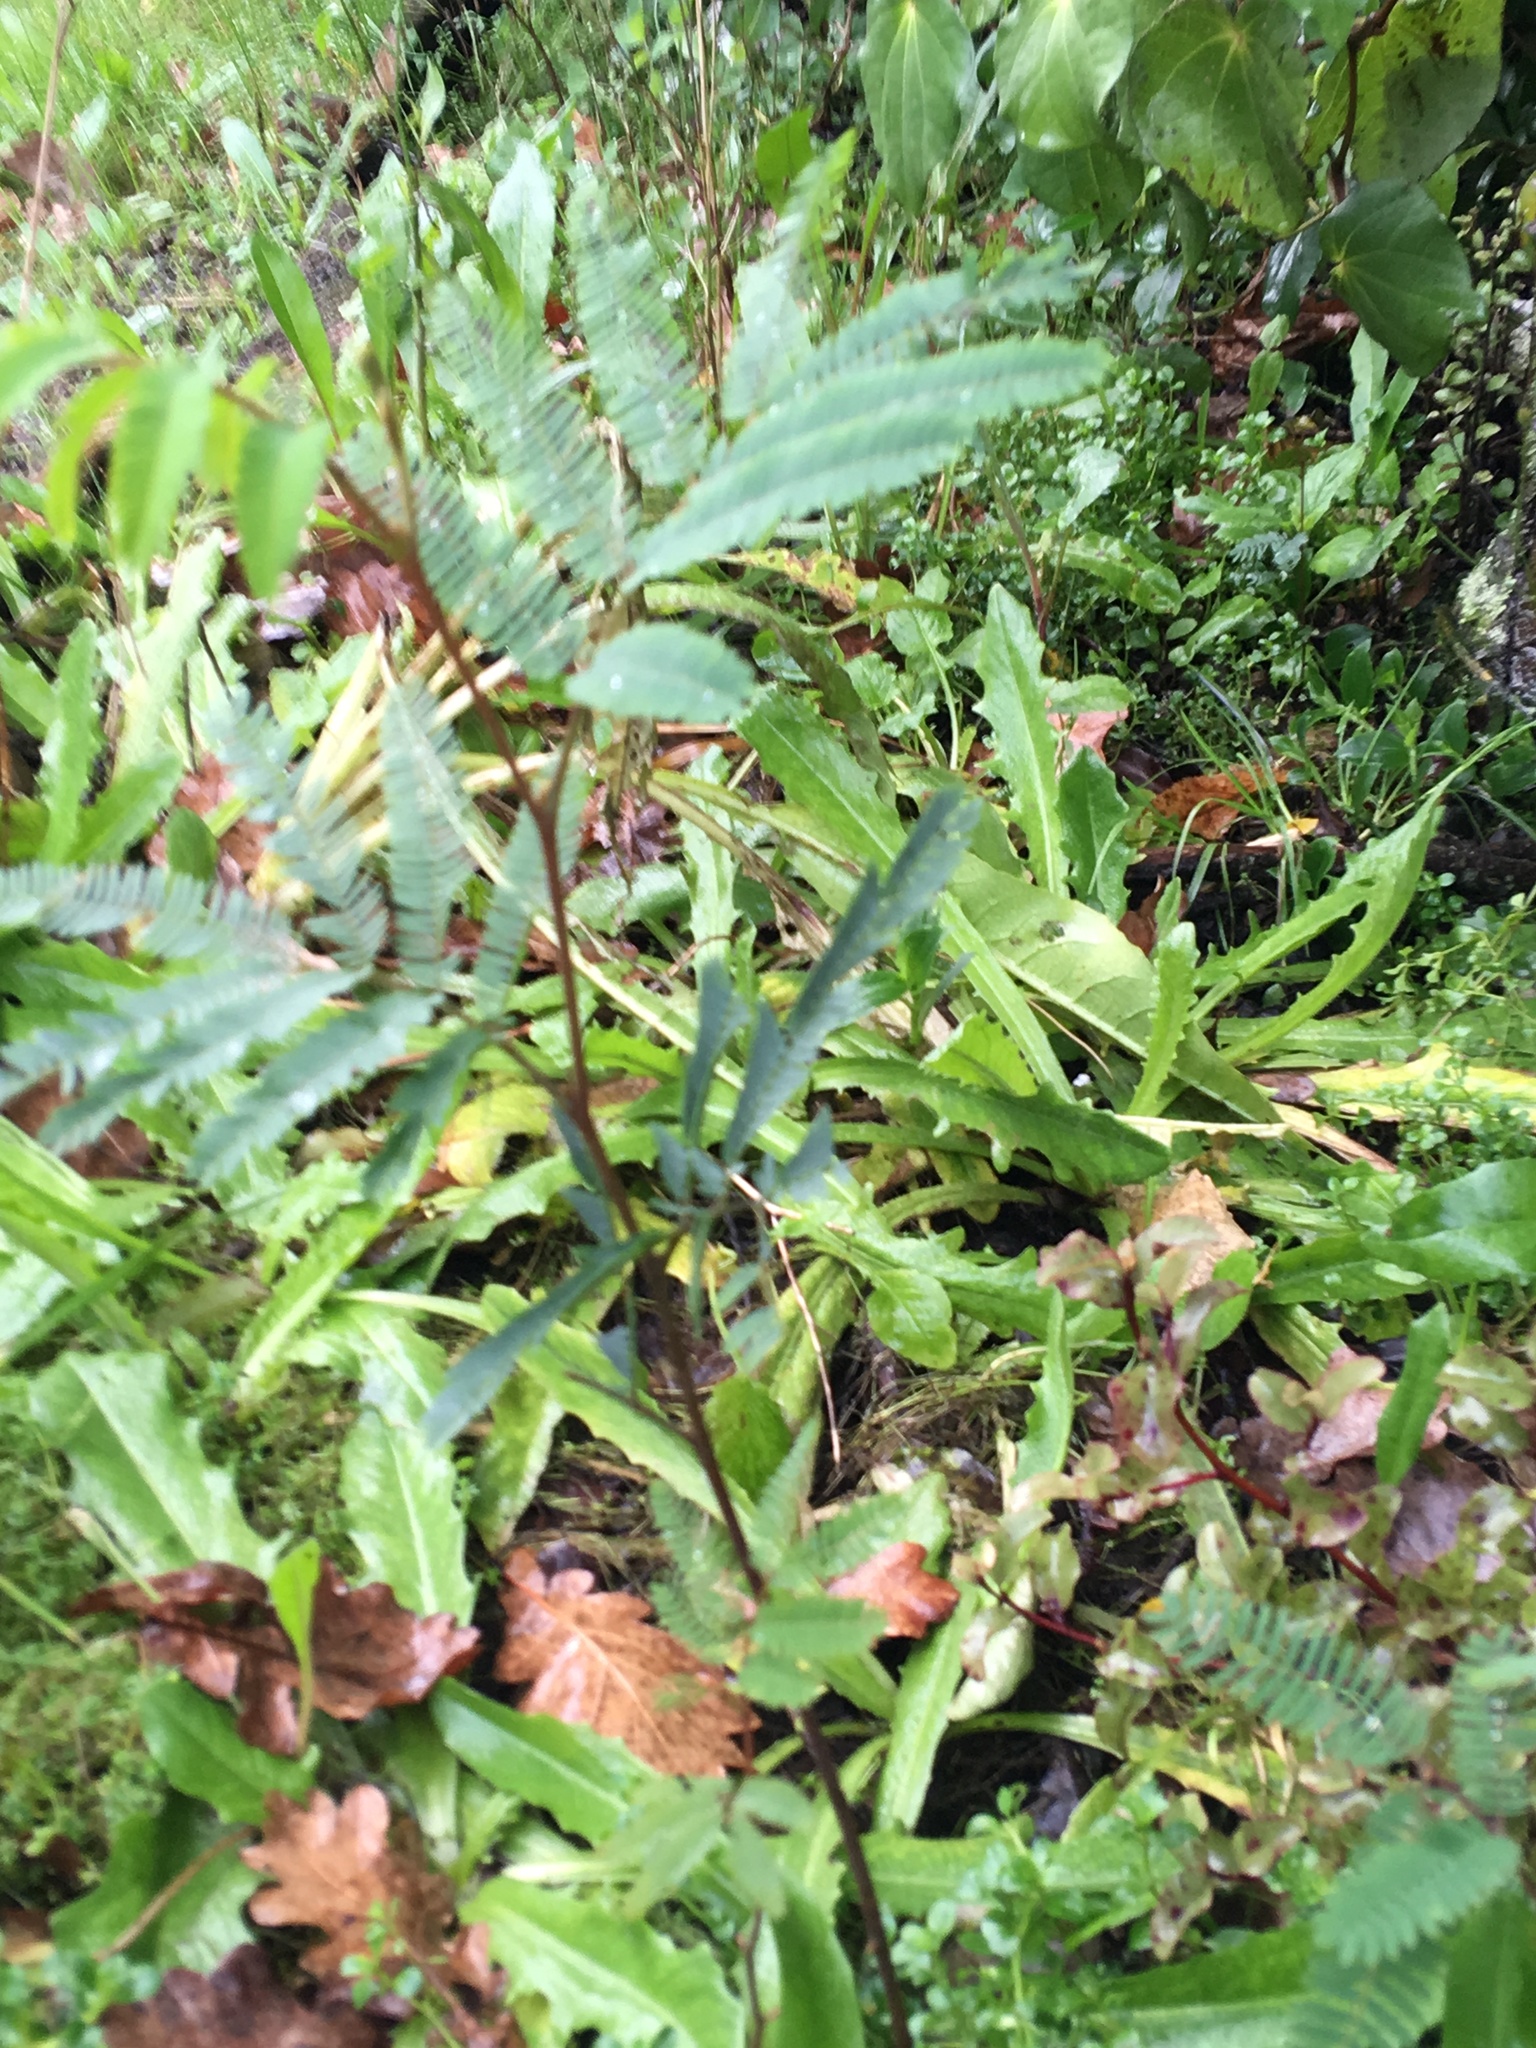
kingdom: Plantae
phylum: Tracheophyta
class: Magnoliopsida
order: Fabales
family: Fabaceae
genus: Paraserianthes
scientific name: Paraserianthes lophantha
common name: Plume albizia
